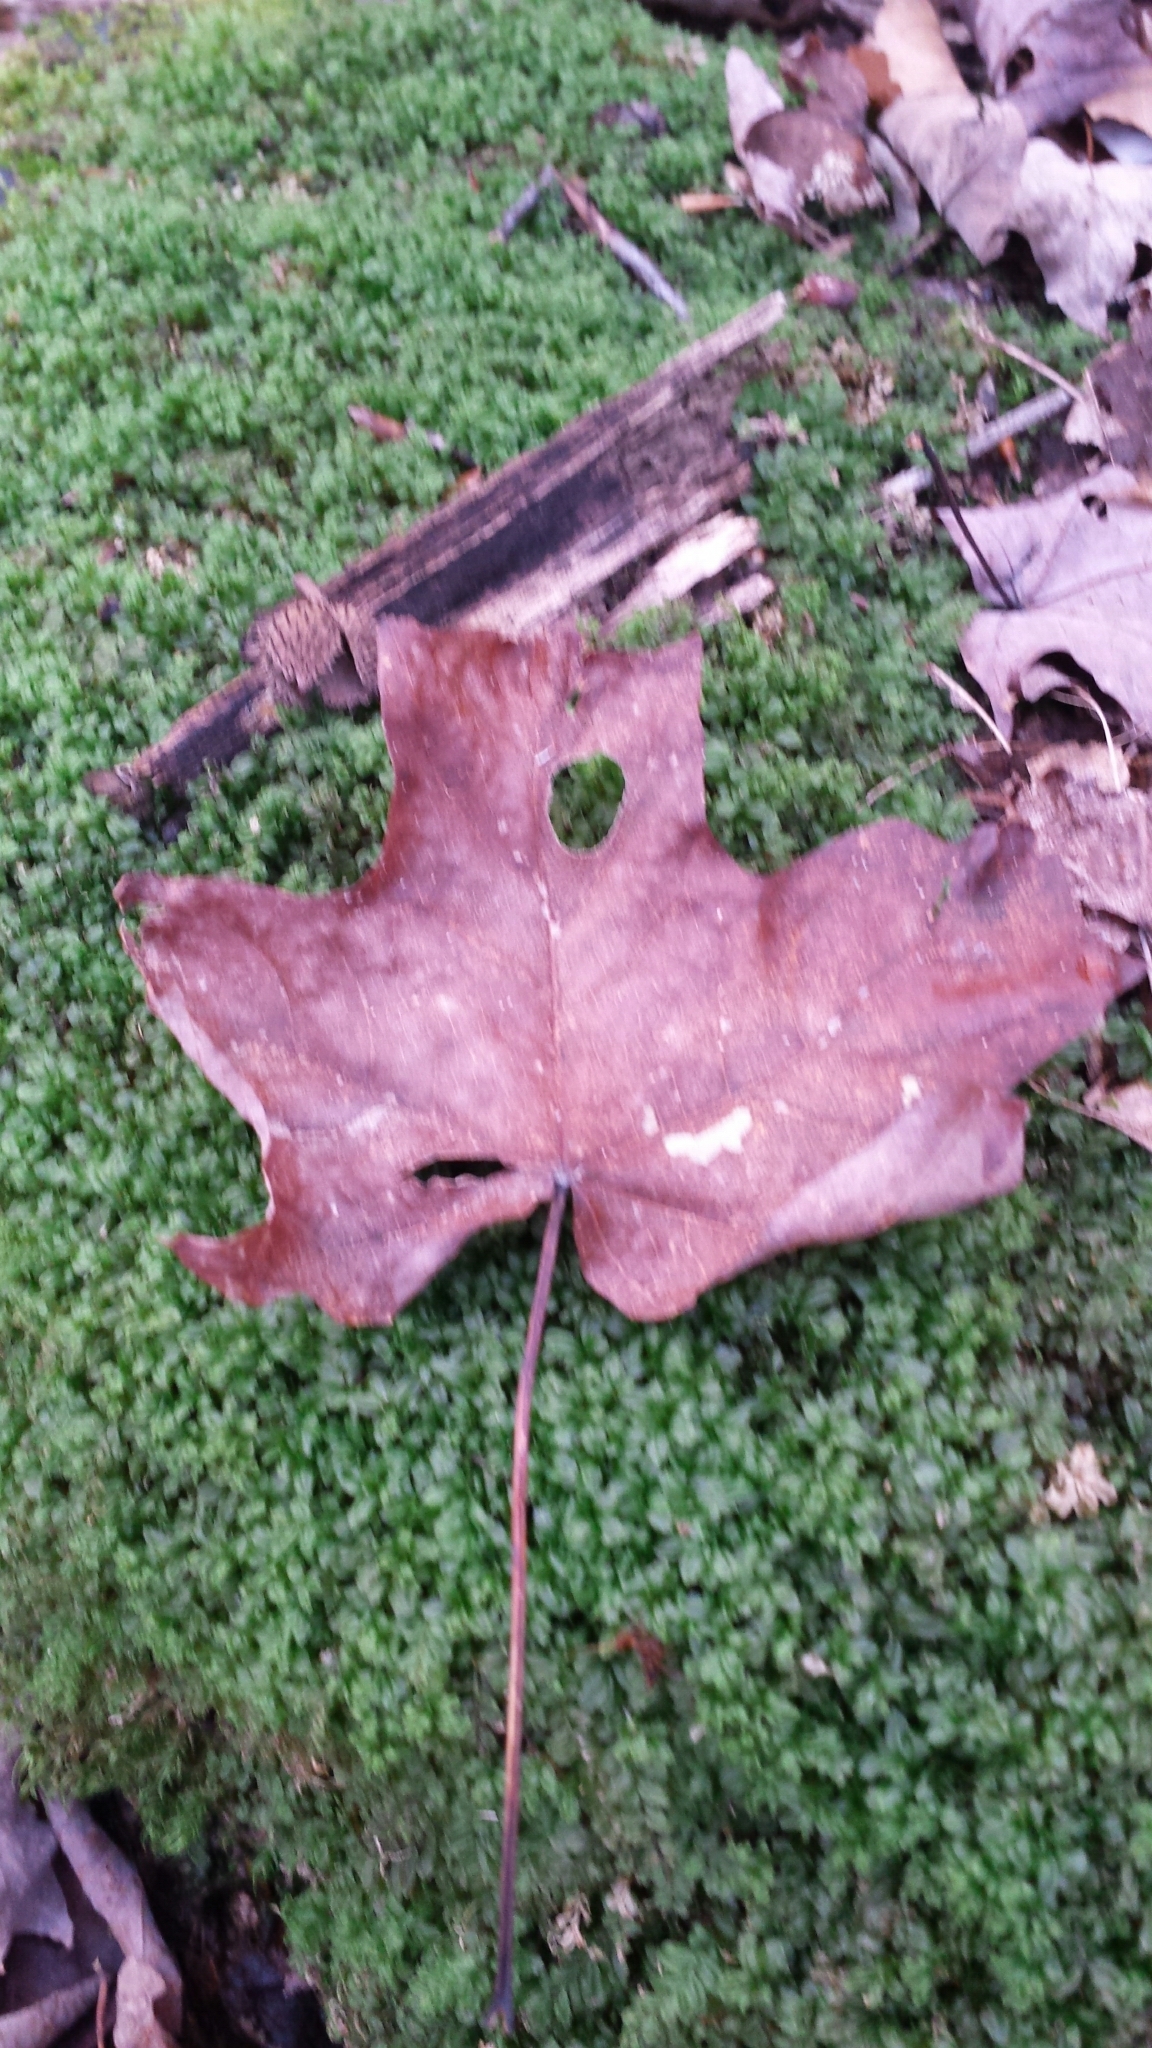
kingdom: Plantae
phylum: Tracheophyta
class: Magnoliopsida
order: Sapindales
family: Sapindaceae
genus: Acer
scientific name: Acer saccharum
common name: Sugar maple
